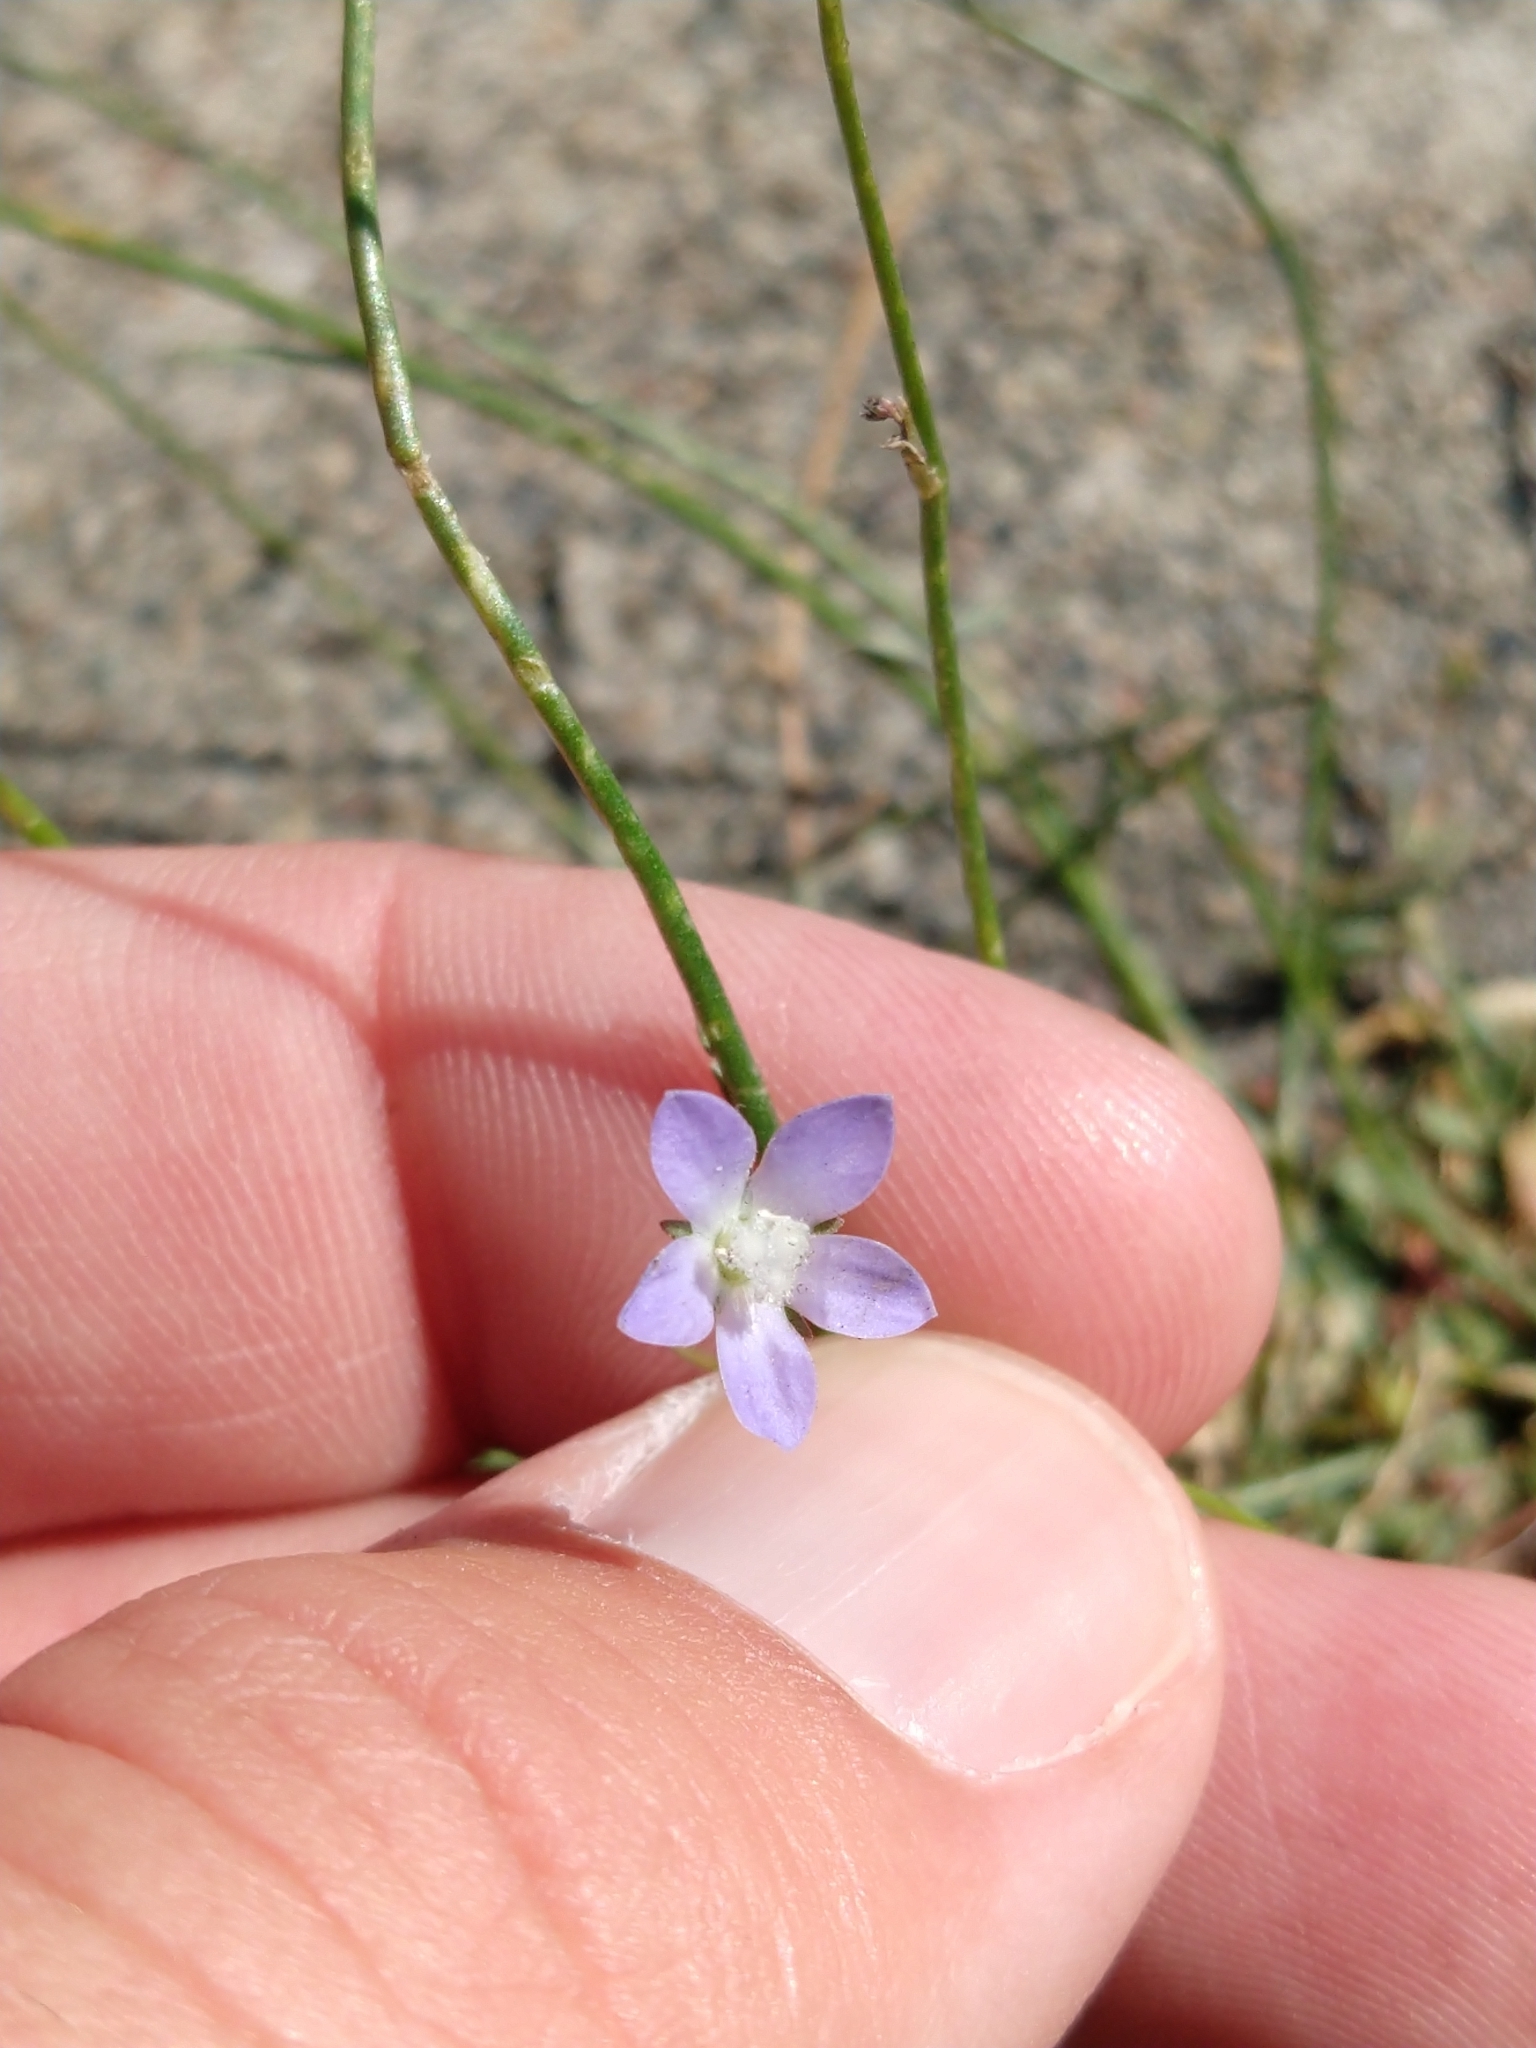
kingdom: Plantae
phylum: Tracheophyta
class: Magnoliopsida
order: Asterales
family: Campanulaceae
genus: Wahlenbergia
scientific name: Wahlenbergia marginata
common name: Southern rockbell
